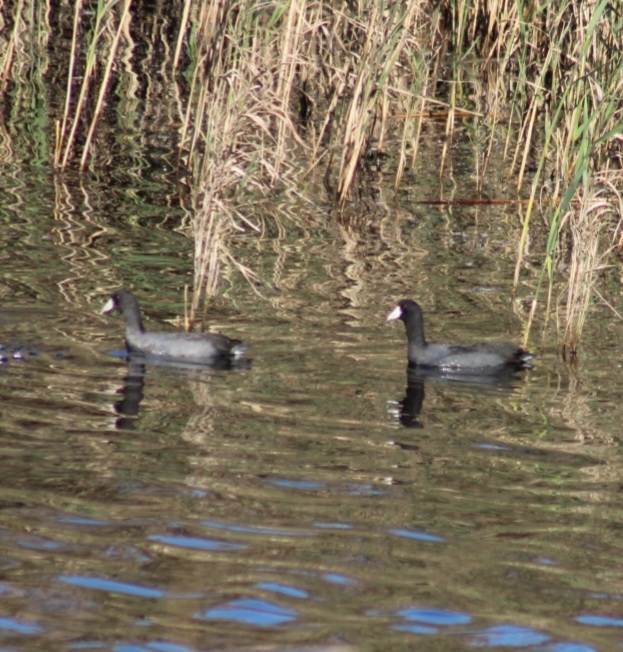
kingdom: Animalia
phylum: Chordata
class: Aves
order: Gruiformes
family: Rallidae
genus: Fulica
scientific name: Fulica americana
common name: American coot
